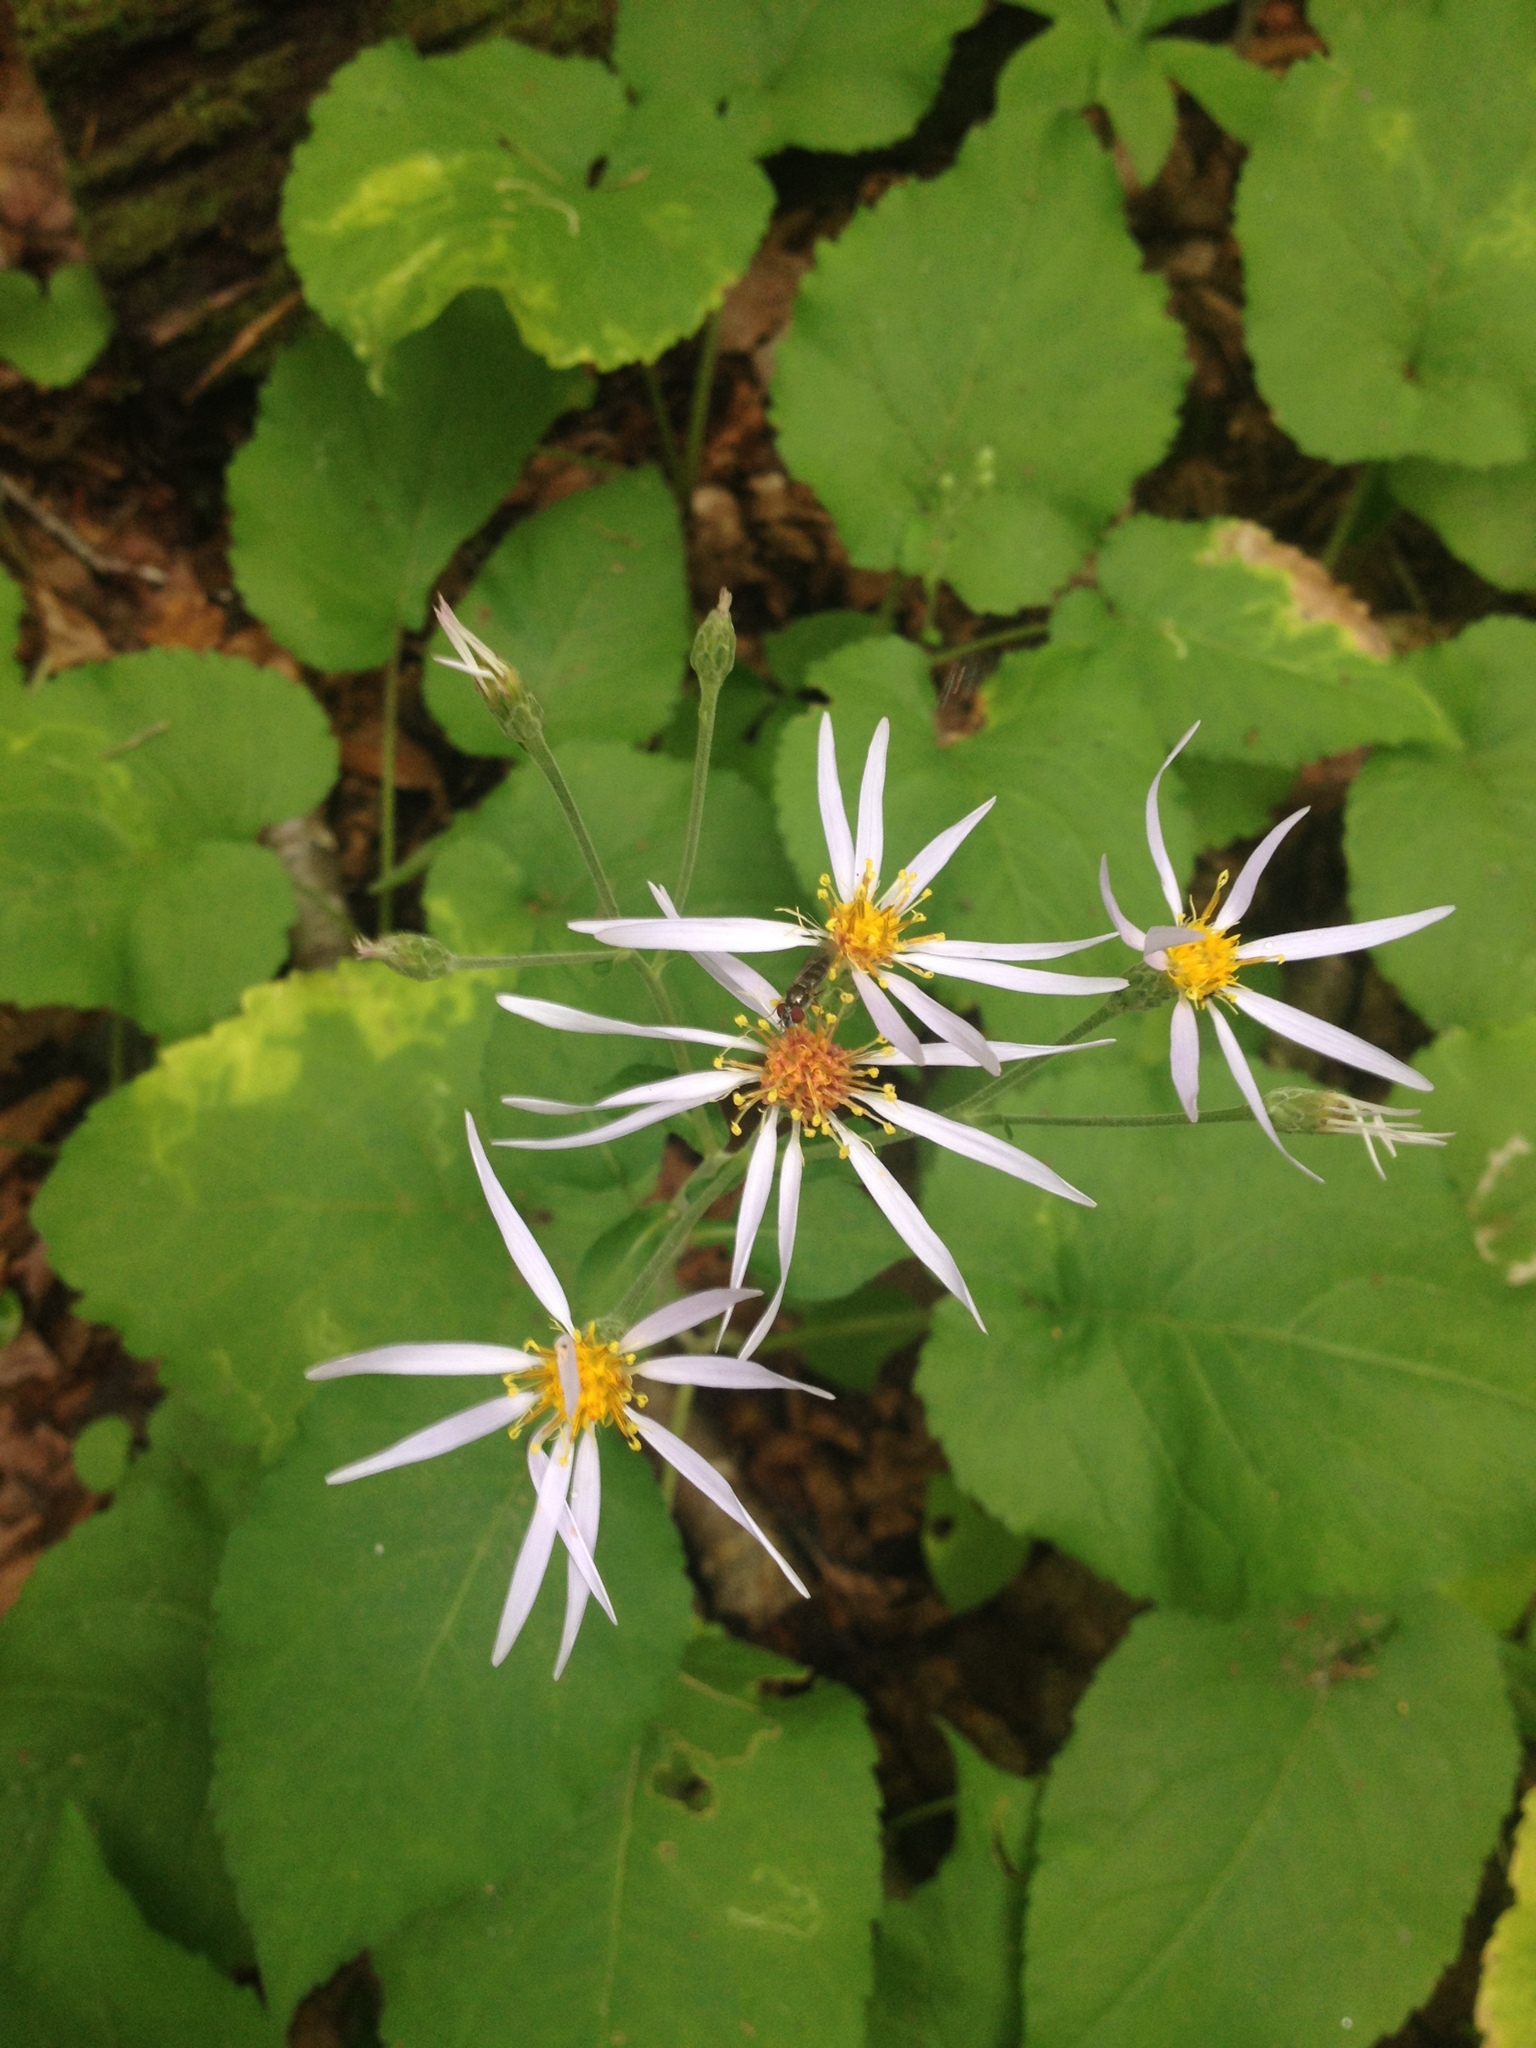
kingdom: Plantae
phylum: Tracheophyta
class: Magnoliopsida
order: Asterales
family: Asteraceae
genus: Eurybia
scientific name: Eurybia macrophylla
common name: Big-leaved aster
